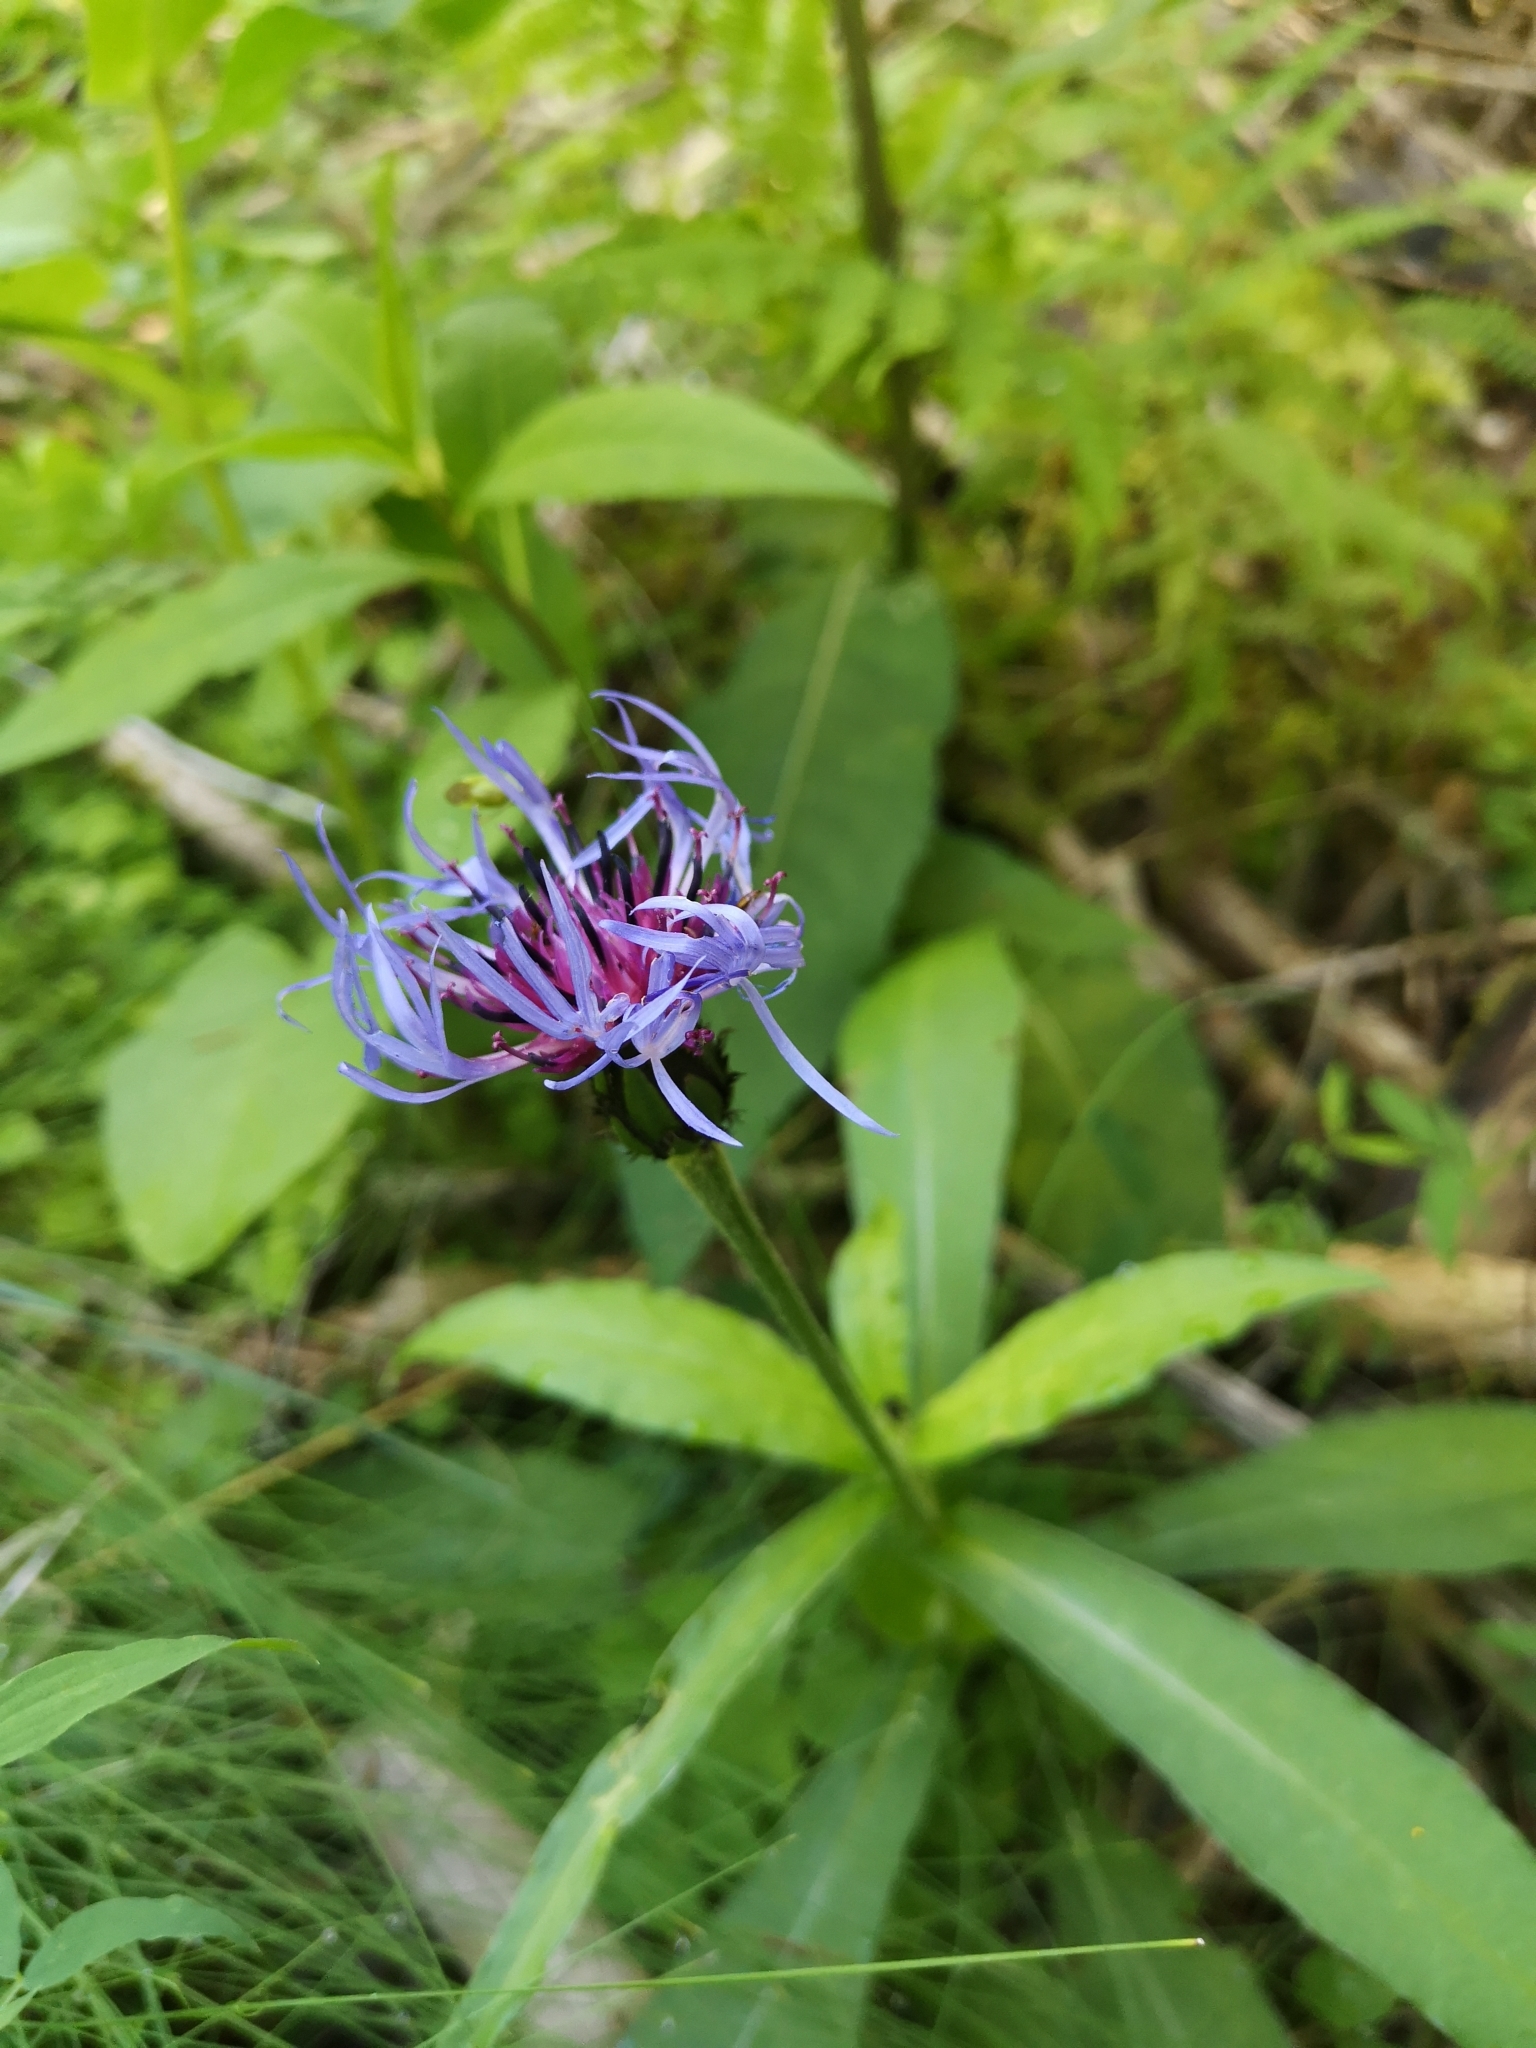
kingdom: Plantae
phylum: Tracheophyta
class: Magnoliopsida
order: Asterales
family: Asteraceae
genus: Centaurea
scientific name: Centaurea montana
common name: Perennial cornflower
